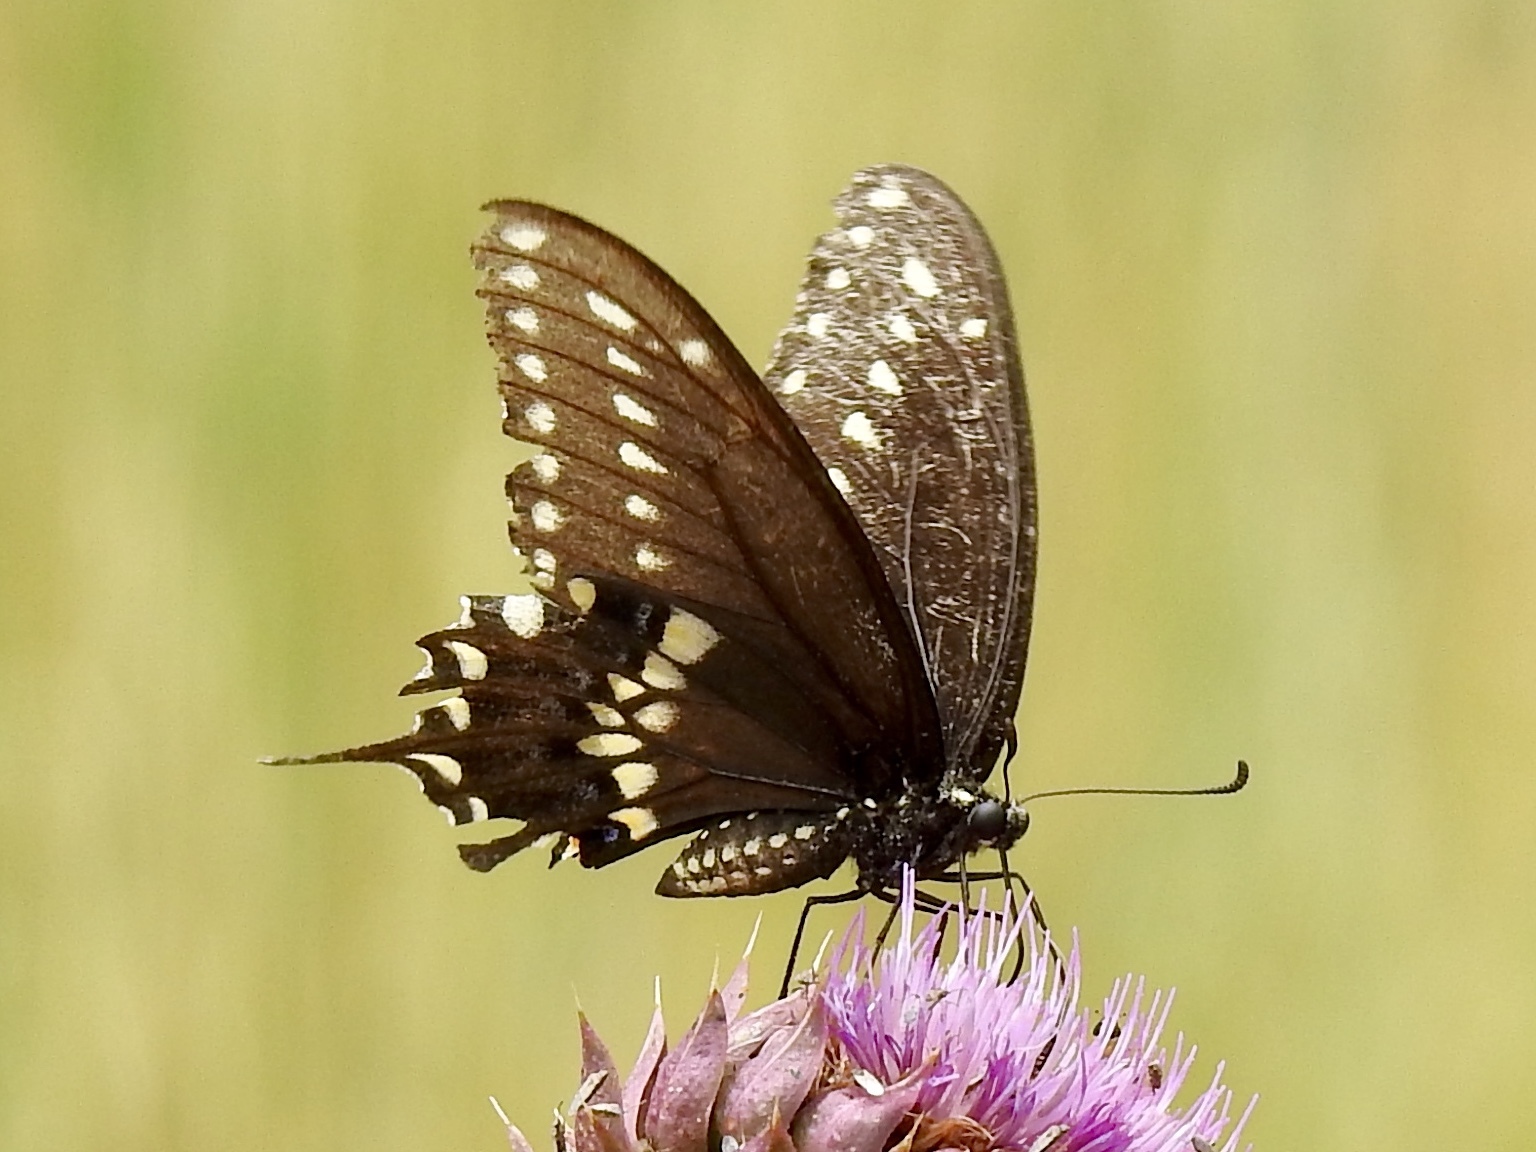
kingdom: Animalia
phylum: Arthropoda
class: Insecta
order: Lepidoptera
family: Papilionidae
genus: Papilio
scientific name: Papilio polyxenes
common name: Black swallowtail
